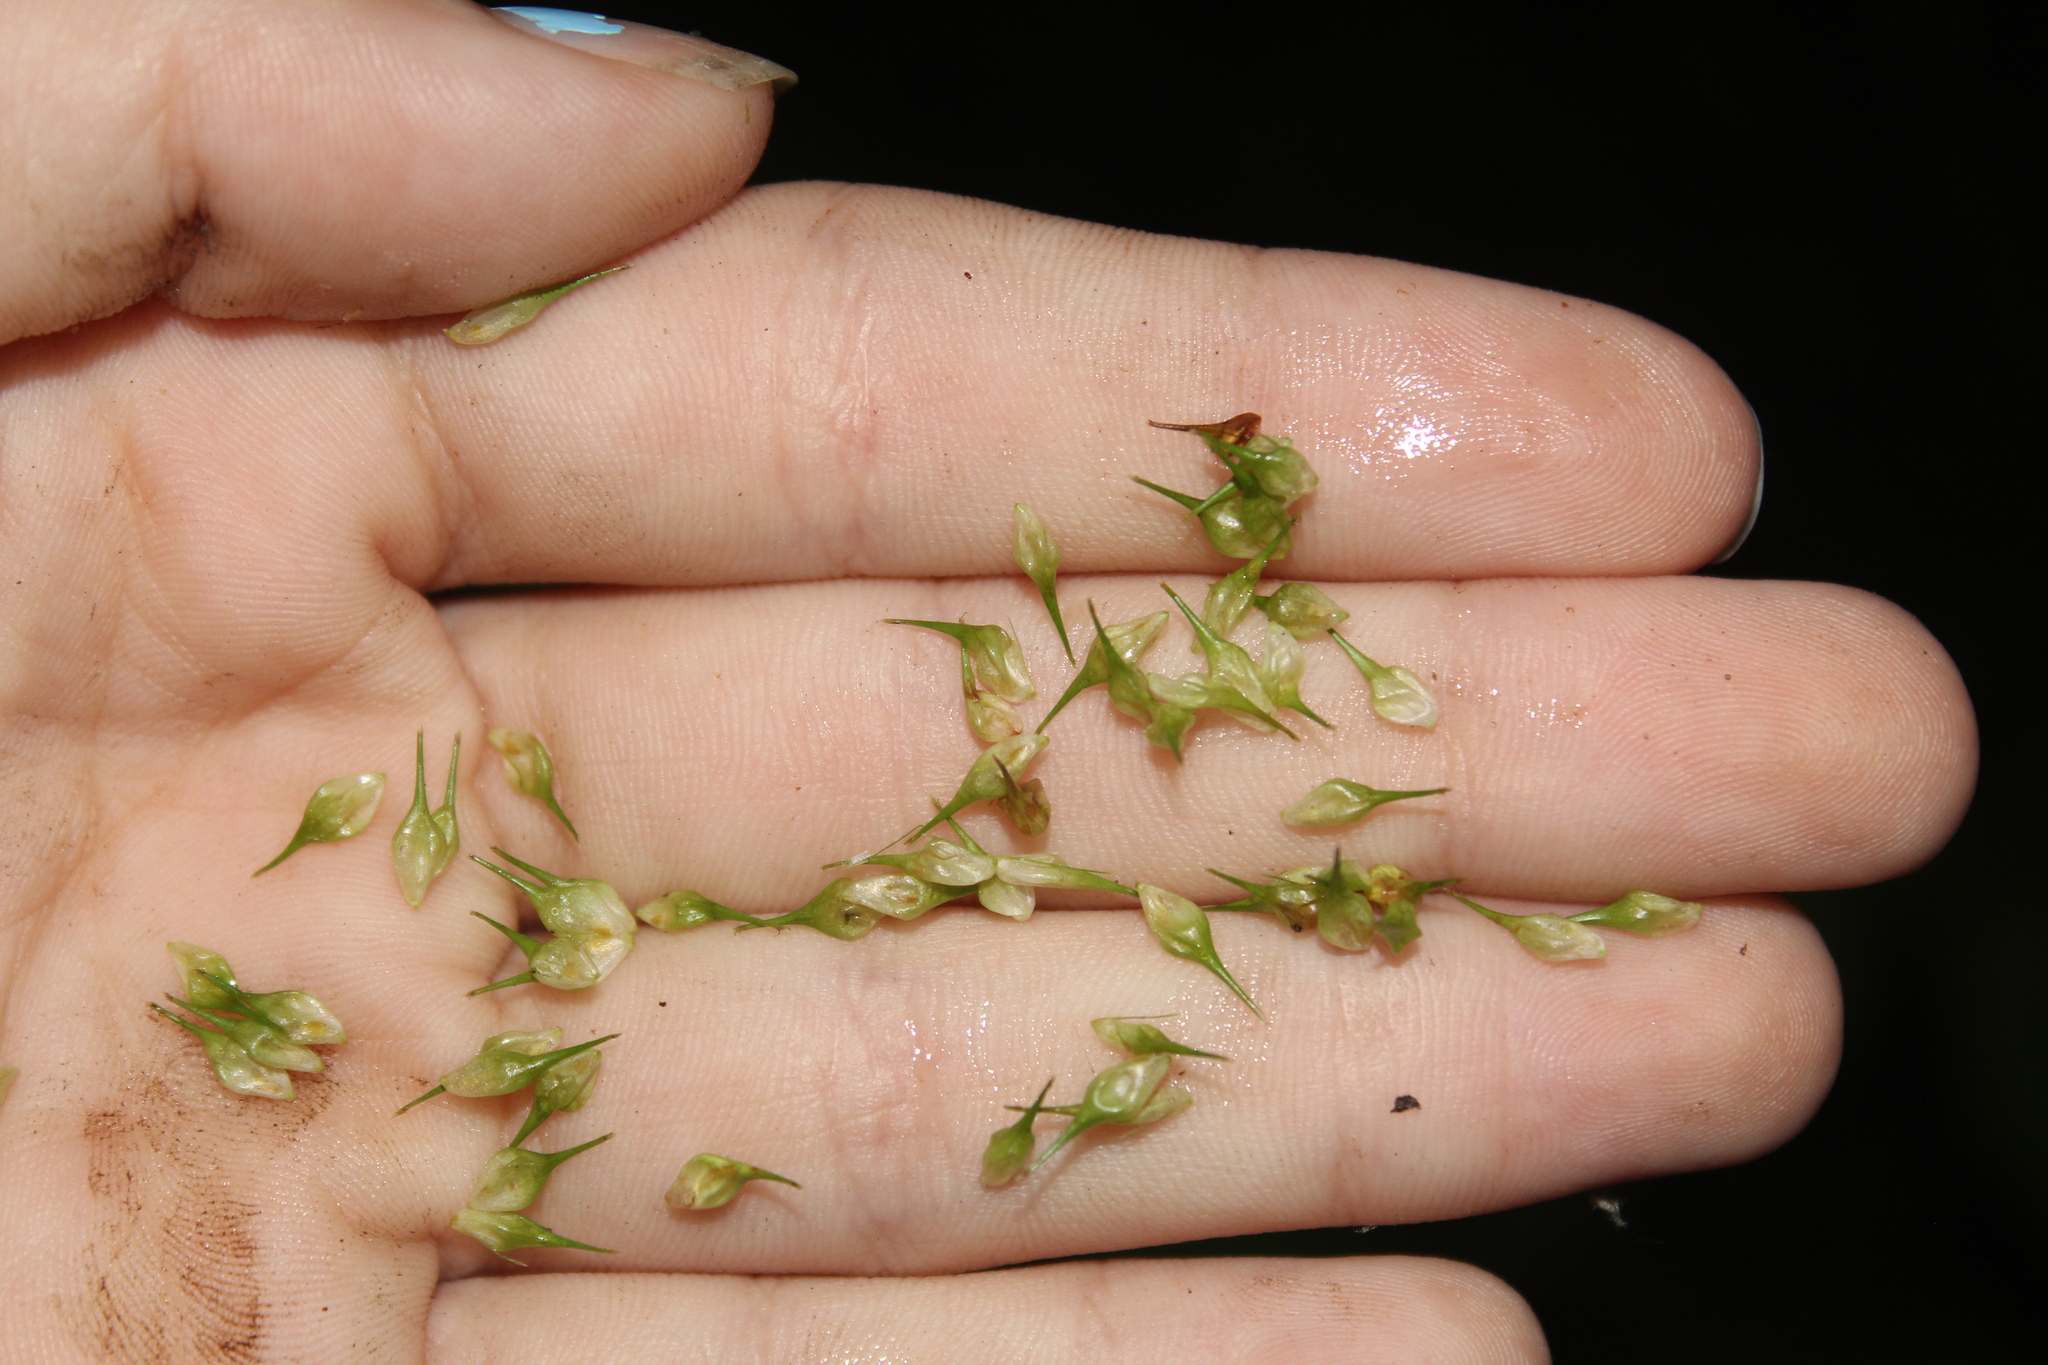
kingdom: Plantae
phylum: Tracheophyta
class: Liliopsida
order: Poales
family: Cyperaceae
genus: Carex
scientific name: Carex lurida
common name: Sallow sedge
